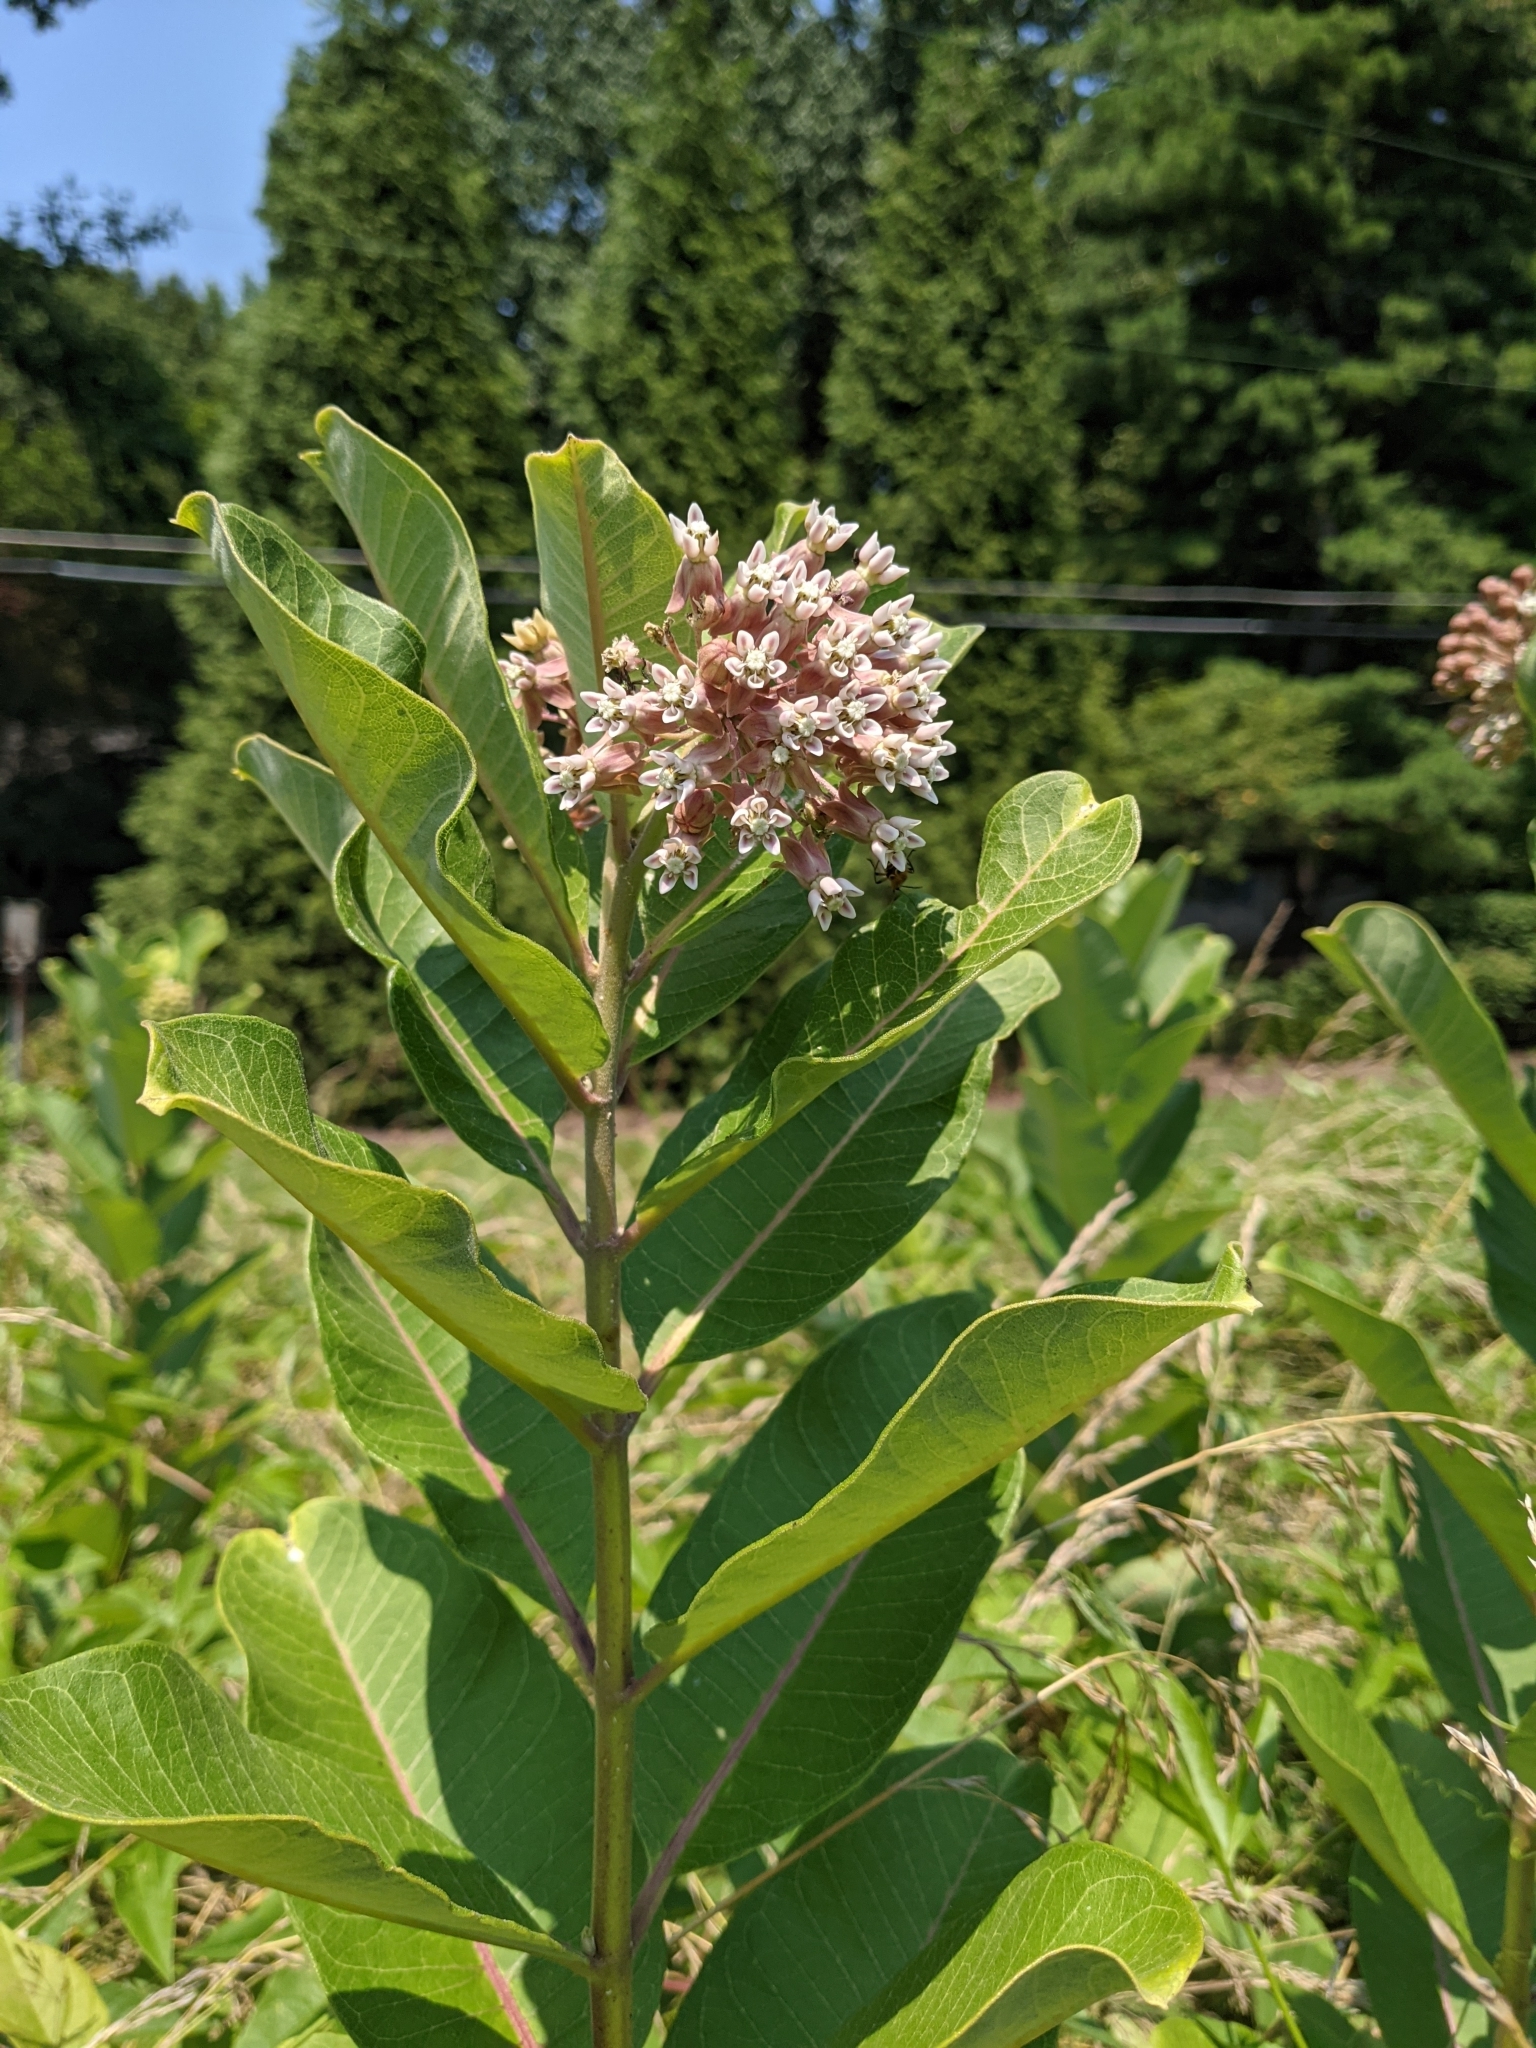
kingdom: Plantae
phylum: Tracheophyta
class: Magnoliopsida
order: Gentianales
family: Apocynaceae
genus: Asclepias
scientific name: Asclepias syriaca
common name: Common milkweed
